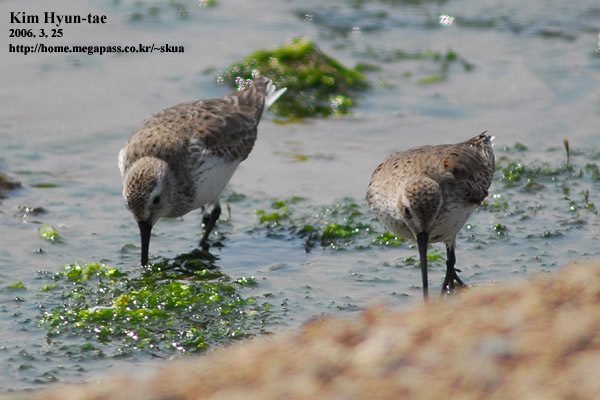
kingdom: Animalia
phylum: Chordata
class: Aves
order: Charadriiformes
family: Scolopacidae
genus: Calidris
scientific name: Calidris alpina
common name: Dunlin
